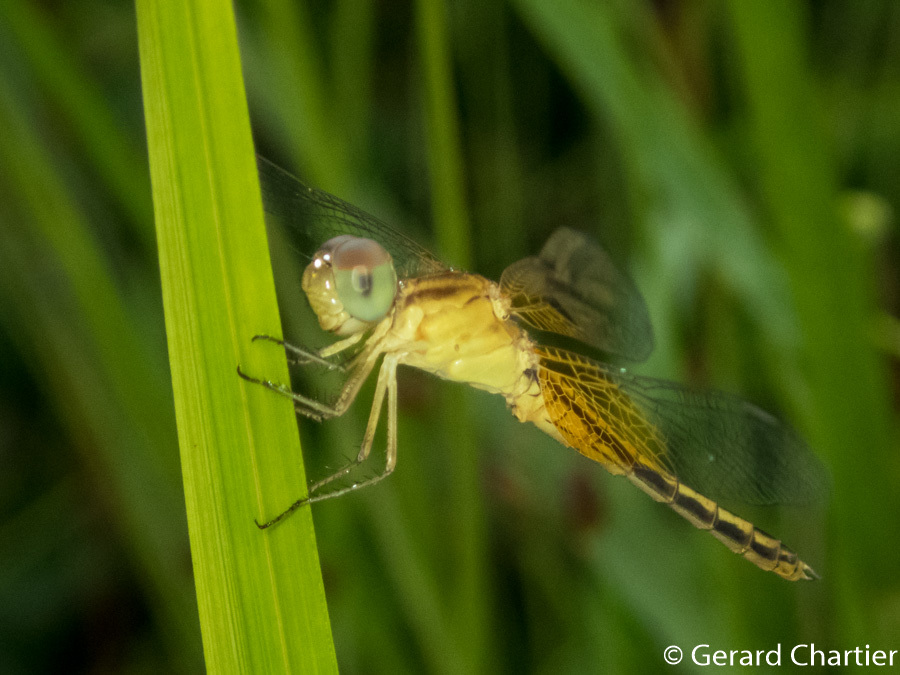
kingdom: Animalia
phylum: Arthropoda
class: Insecta
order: Odonata
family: Libellulidae
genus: Neurothemis
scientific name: Neurothemis intermedia
